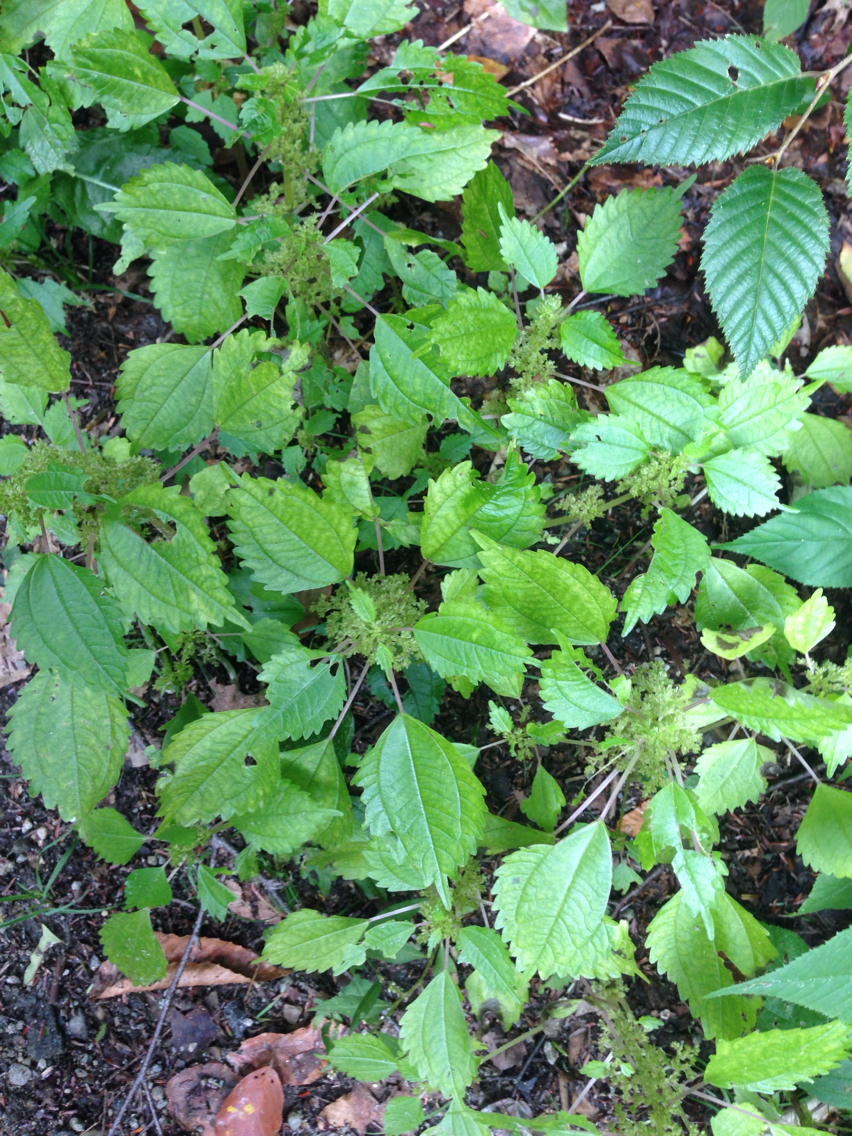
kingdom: Plantae
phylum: Tracheophyta
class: Magnoliopsida
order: Rosales
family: Urticaceae
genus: Pilea
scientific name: Pilea pumila
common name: Clearweed
